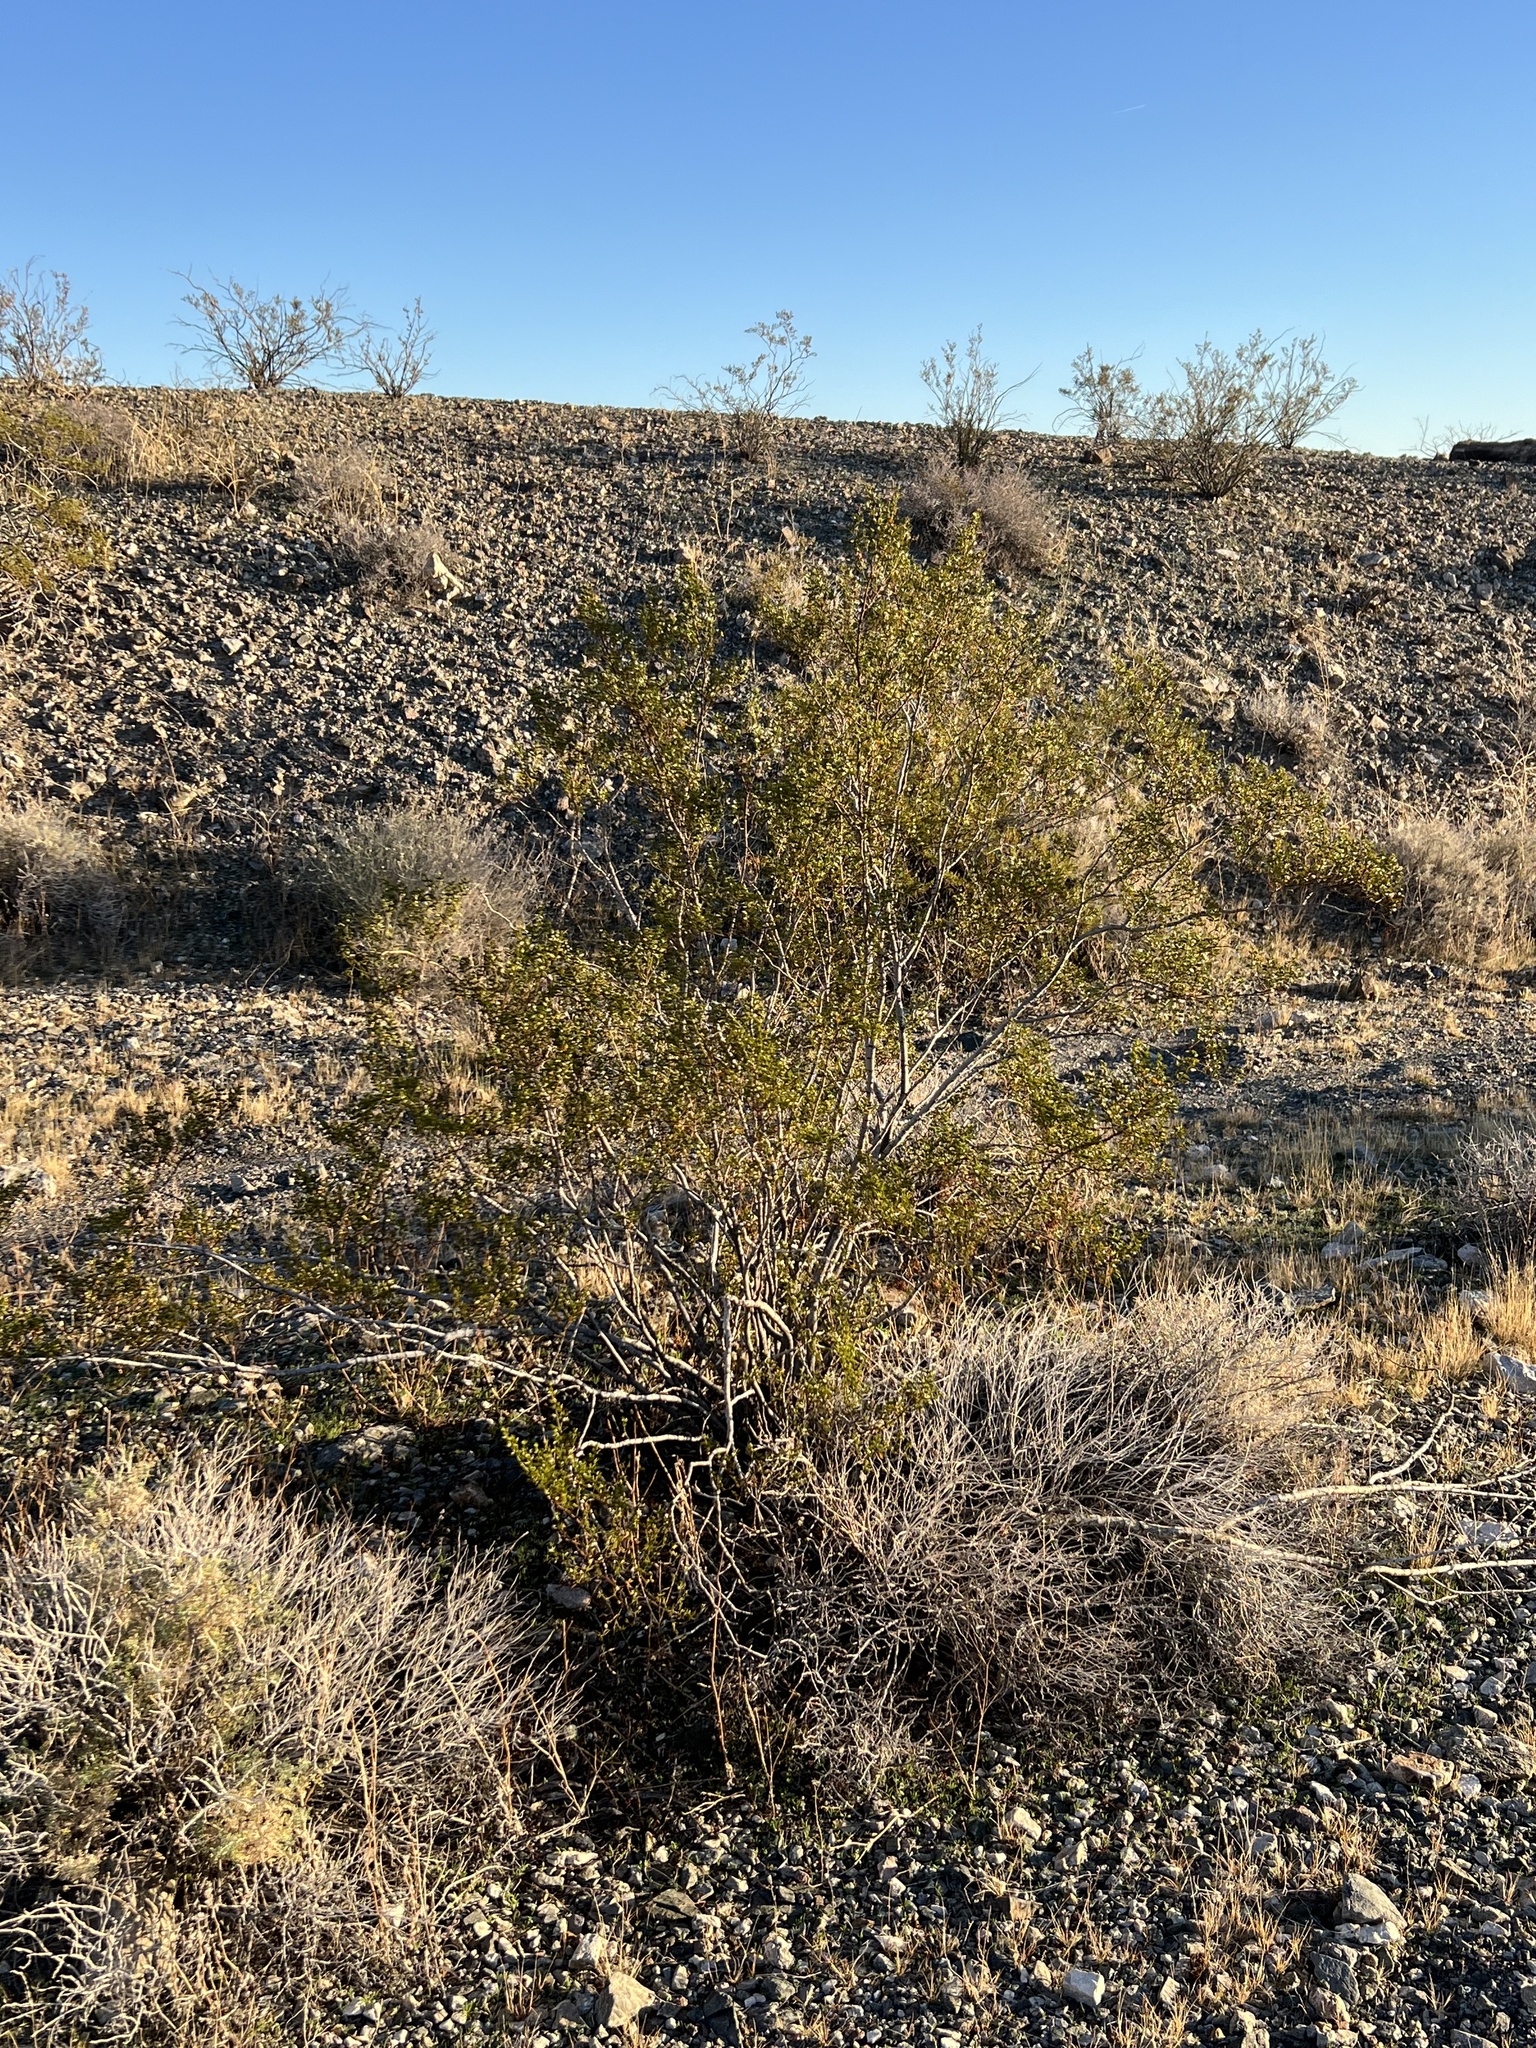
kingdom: Plantae
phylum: Tracheophyta
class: Magnoliopsida
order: Zygophyllales
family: Zygophyllaceae
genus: Larrea
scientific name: Larrea tridentata
